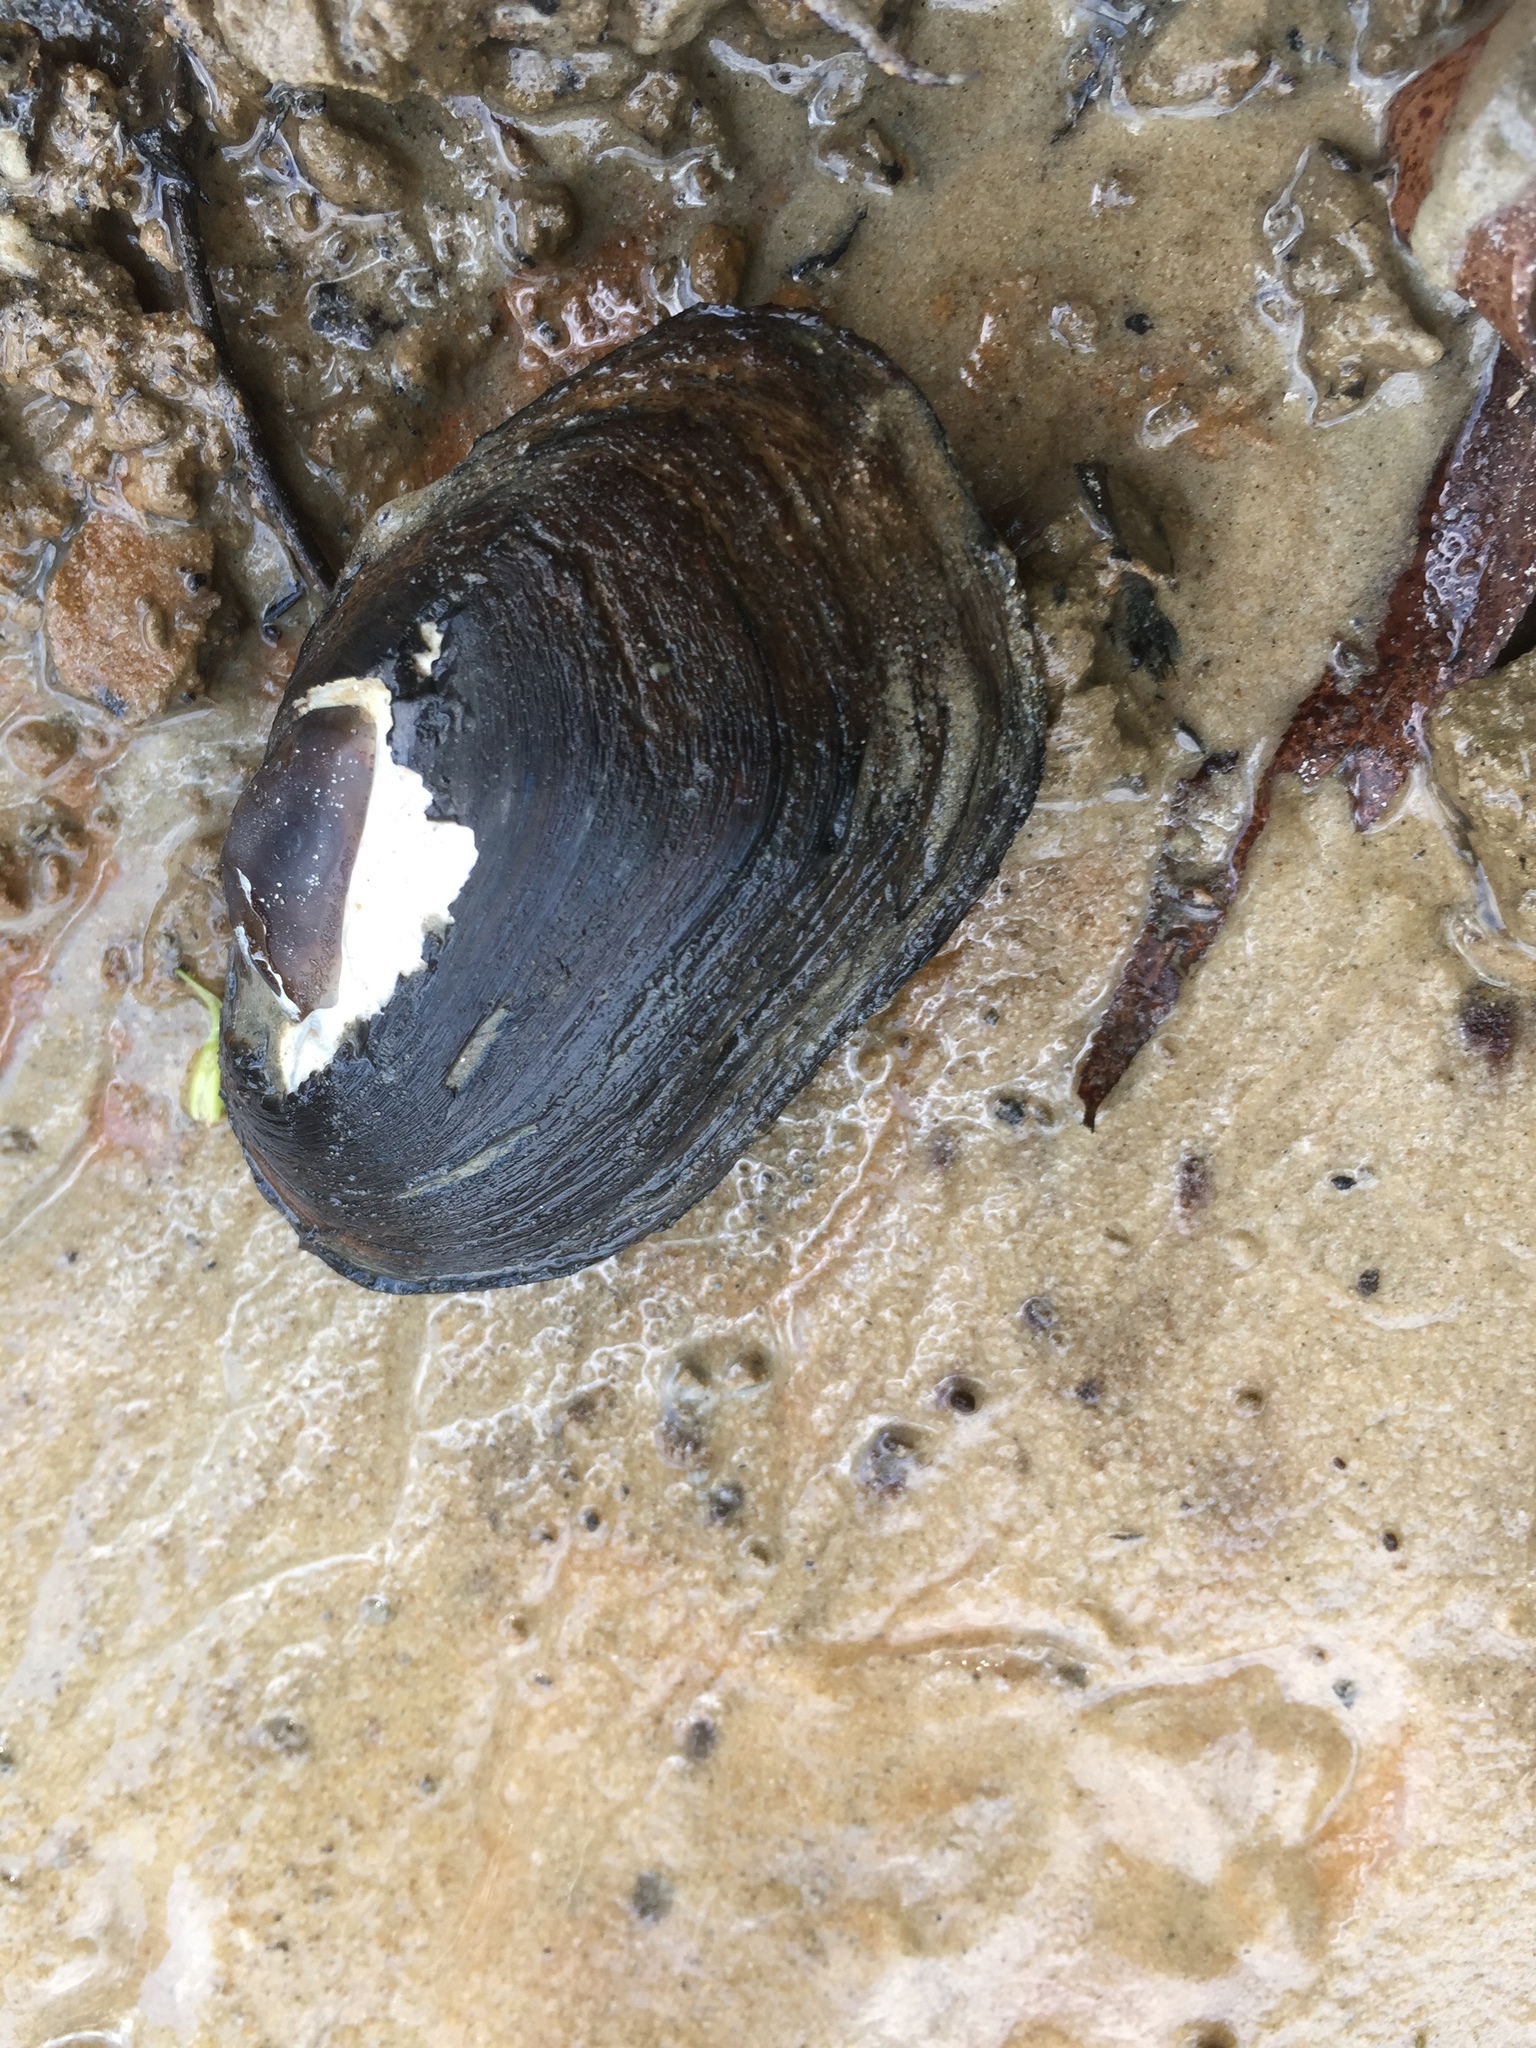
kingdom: Animalia
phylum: Mollusca
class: Bivalvia
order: Unionida
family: Unionidae
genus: Leaunio
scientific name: Leaunio lienosus
